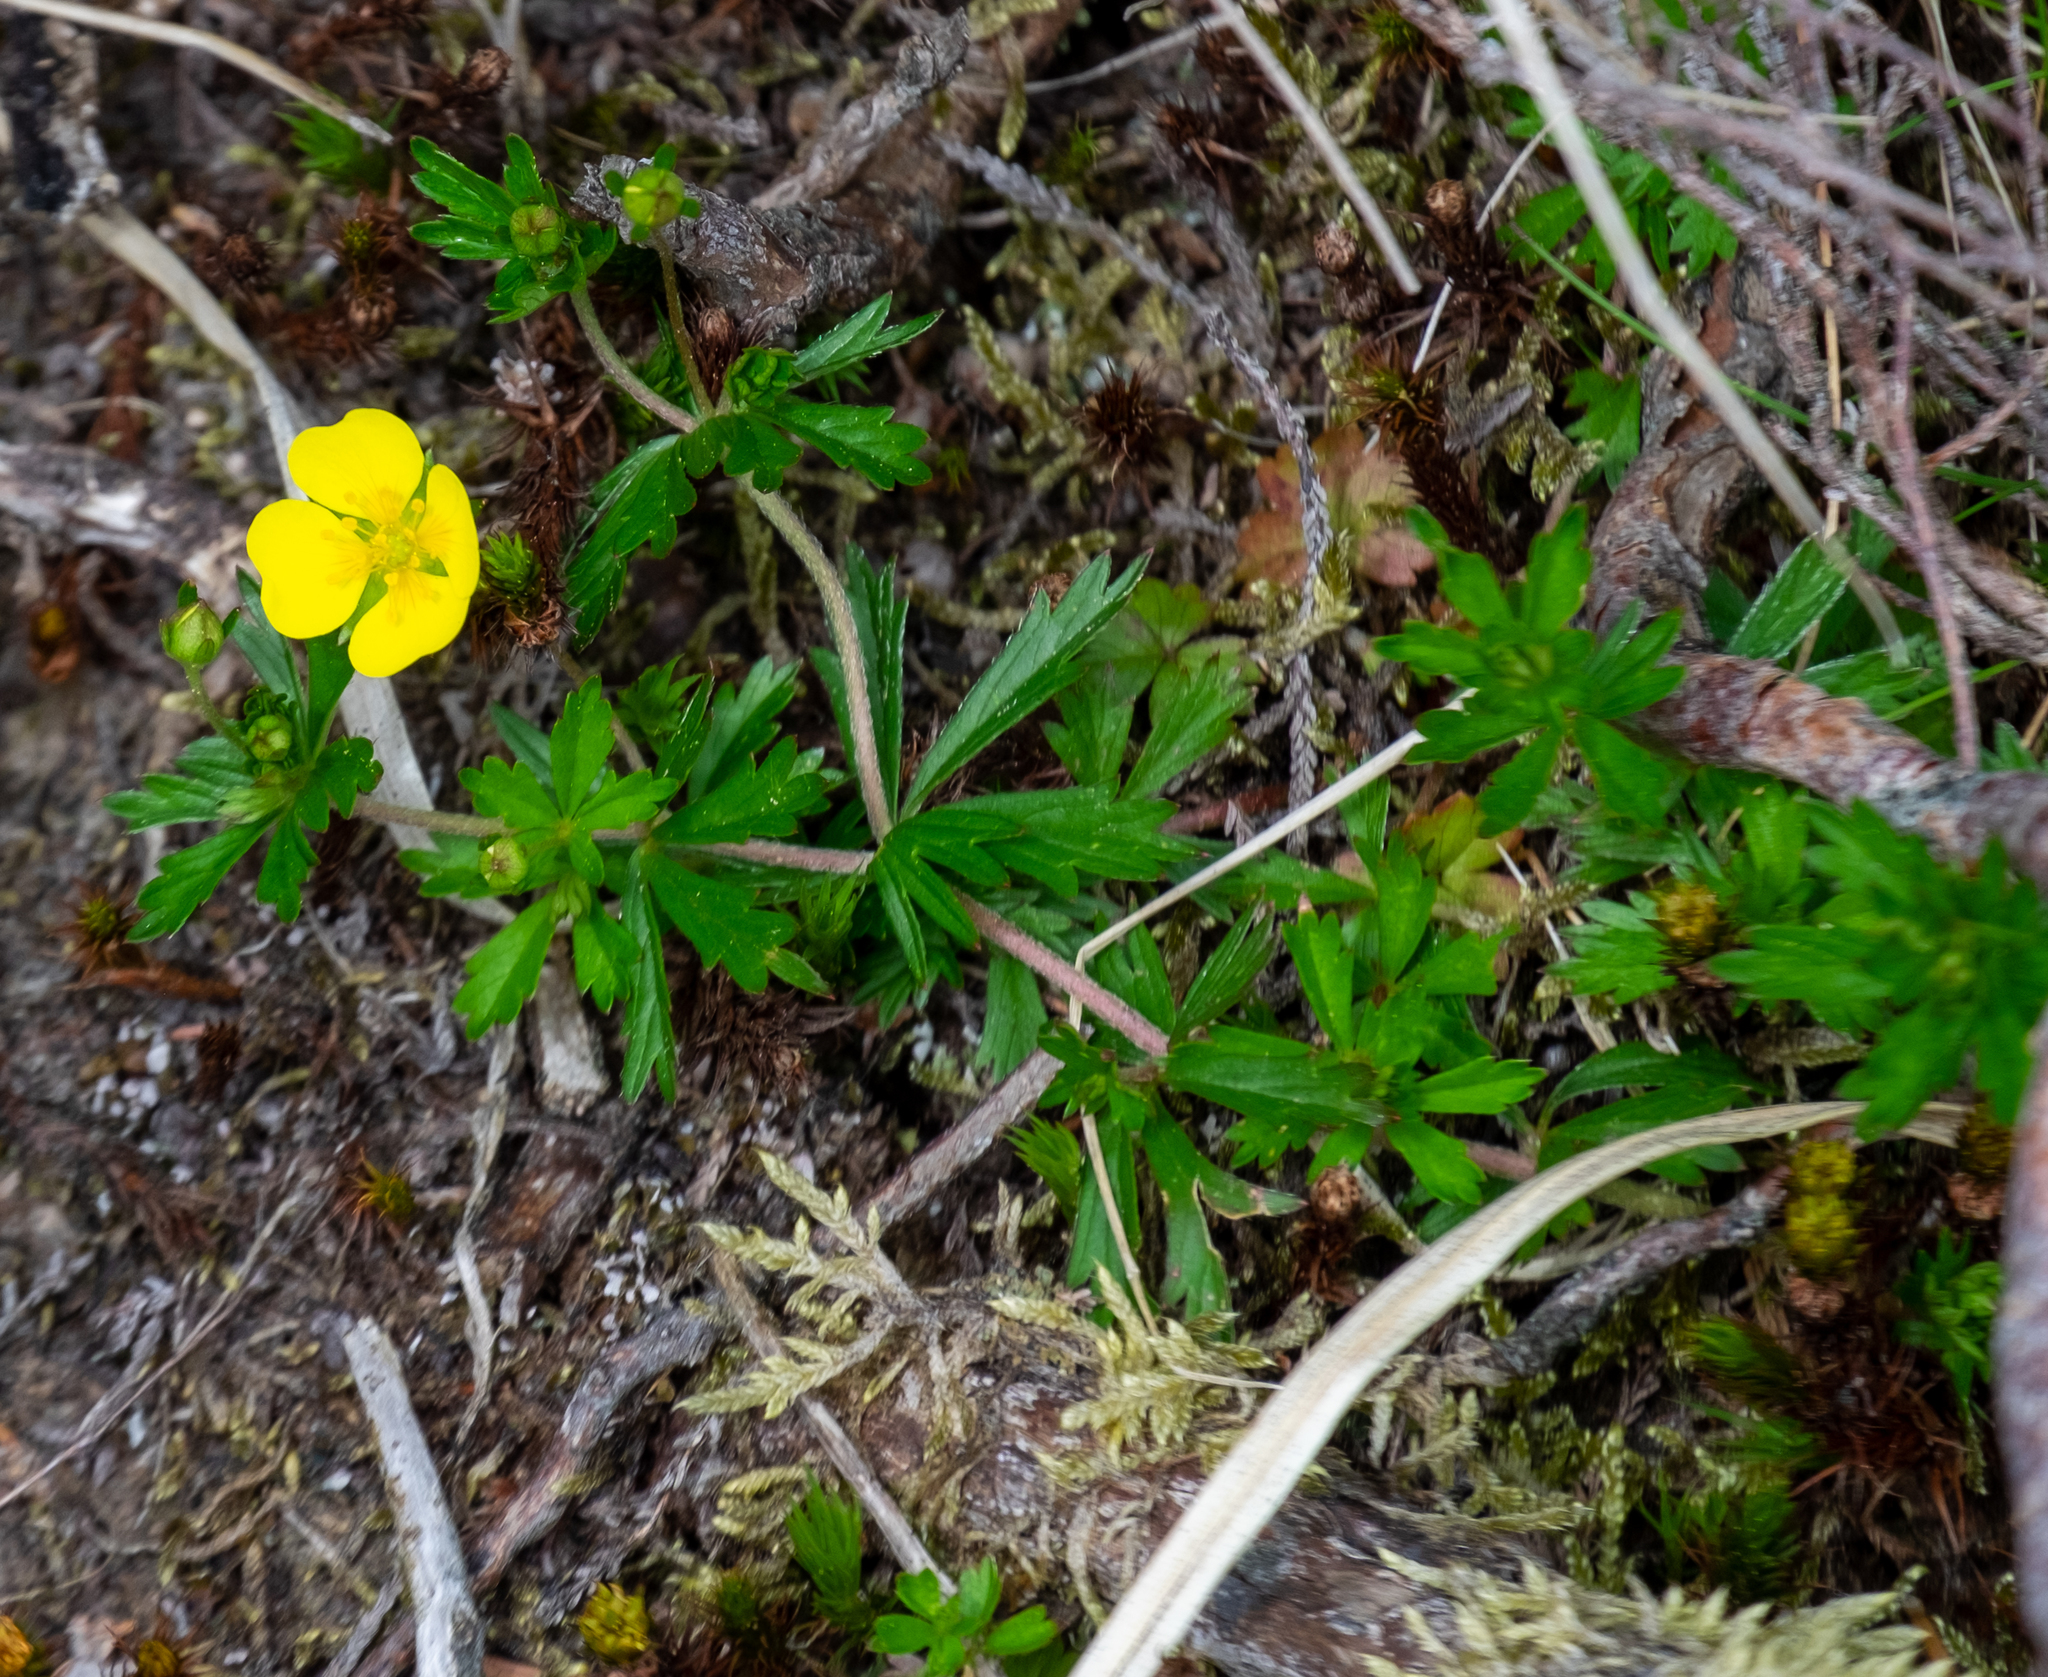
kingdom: Plantae
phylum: Tracheophyta
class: Magnoliopsida
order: Rosales
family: Rosaceae
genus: Potentilla
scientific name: Potentilla erecta
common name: Tormentil
